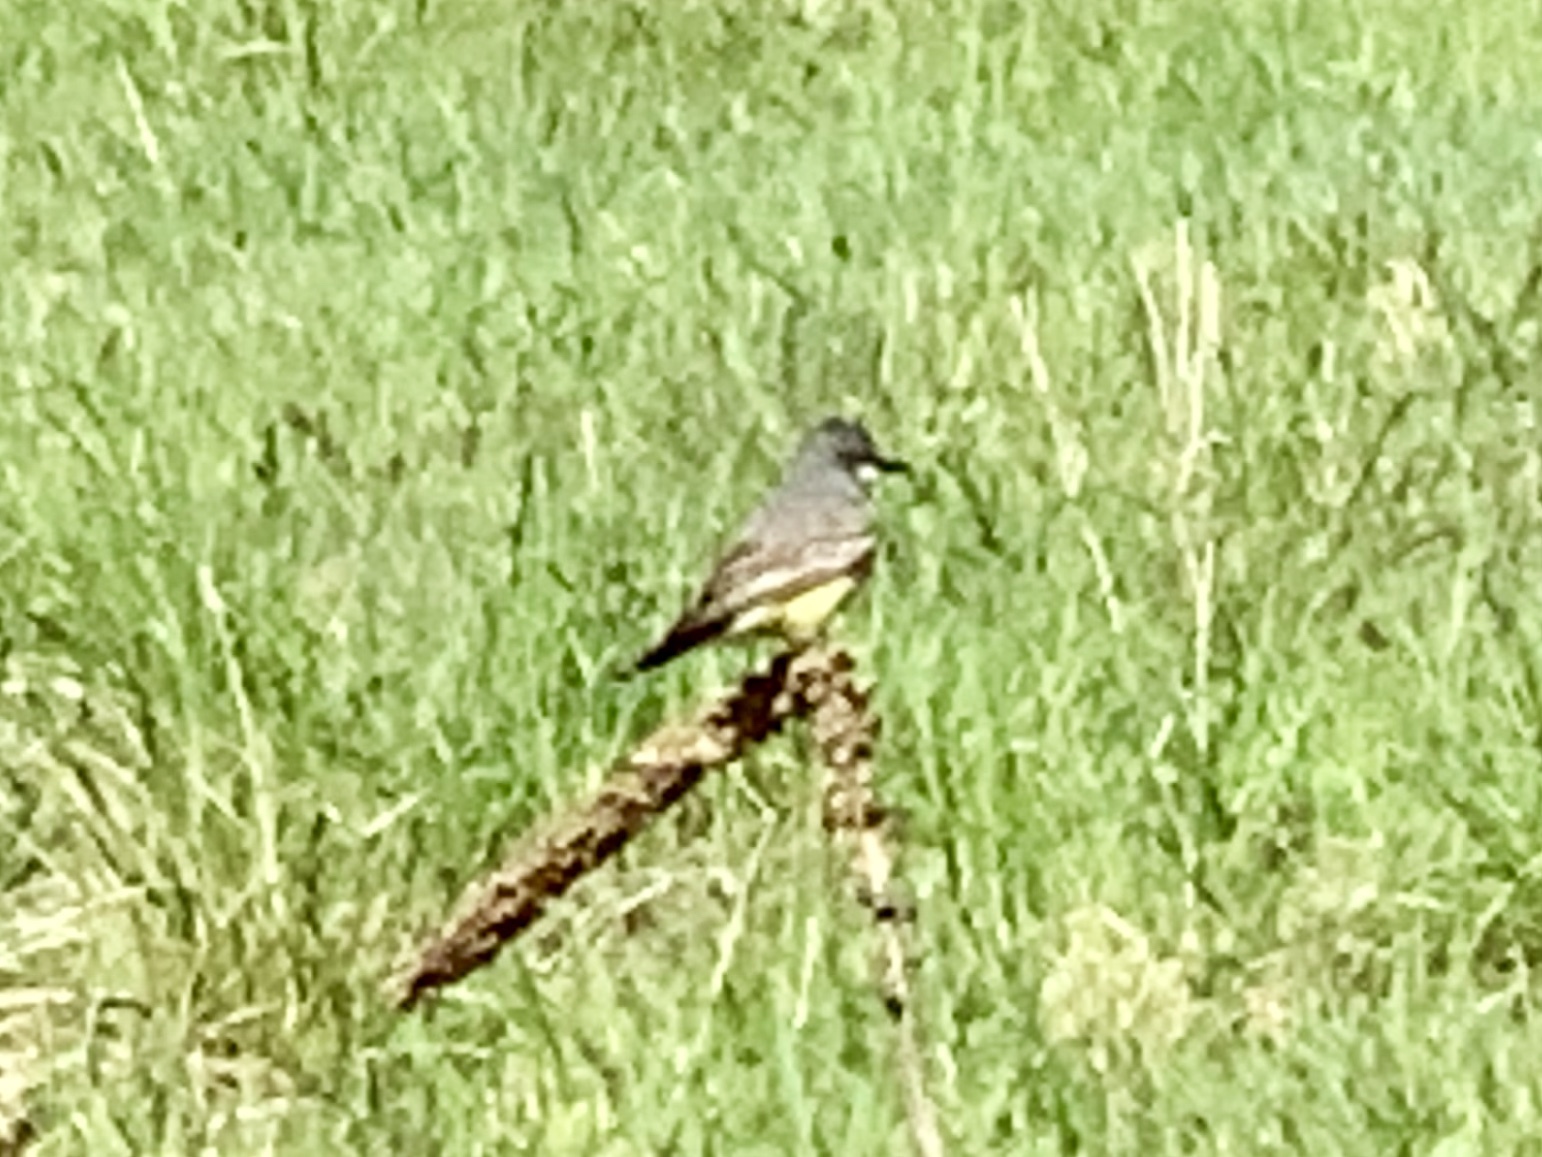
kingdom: Animalia
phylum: Chordata
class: Aves
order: Passeriformes
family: Tyrannidae
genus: Tyrannus
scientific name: Tyrannus vociferans
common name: Cassin's kingbird
